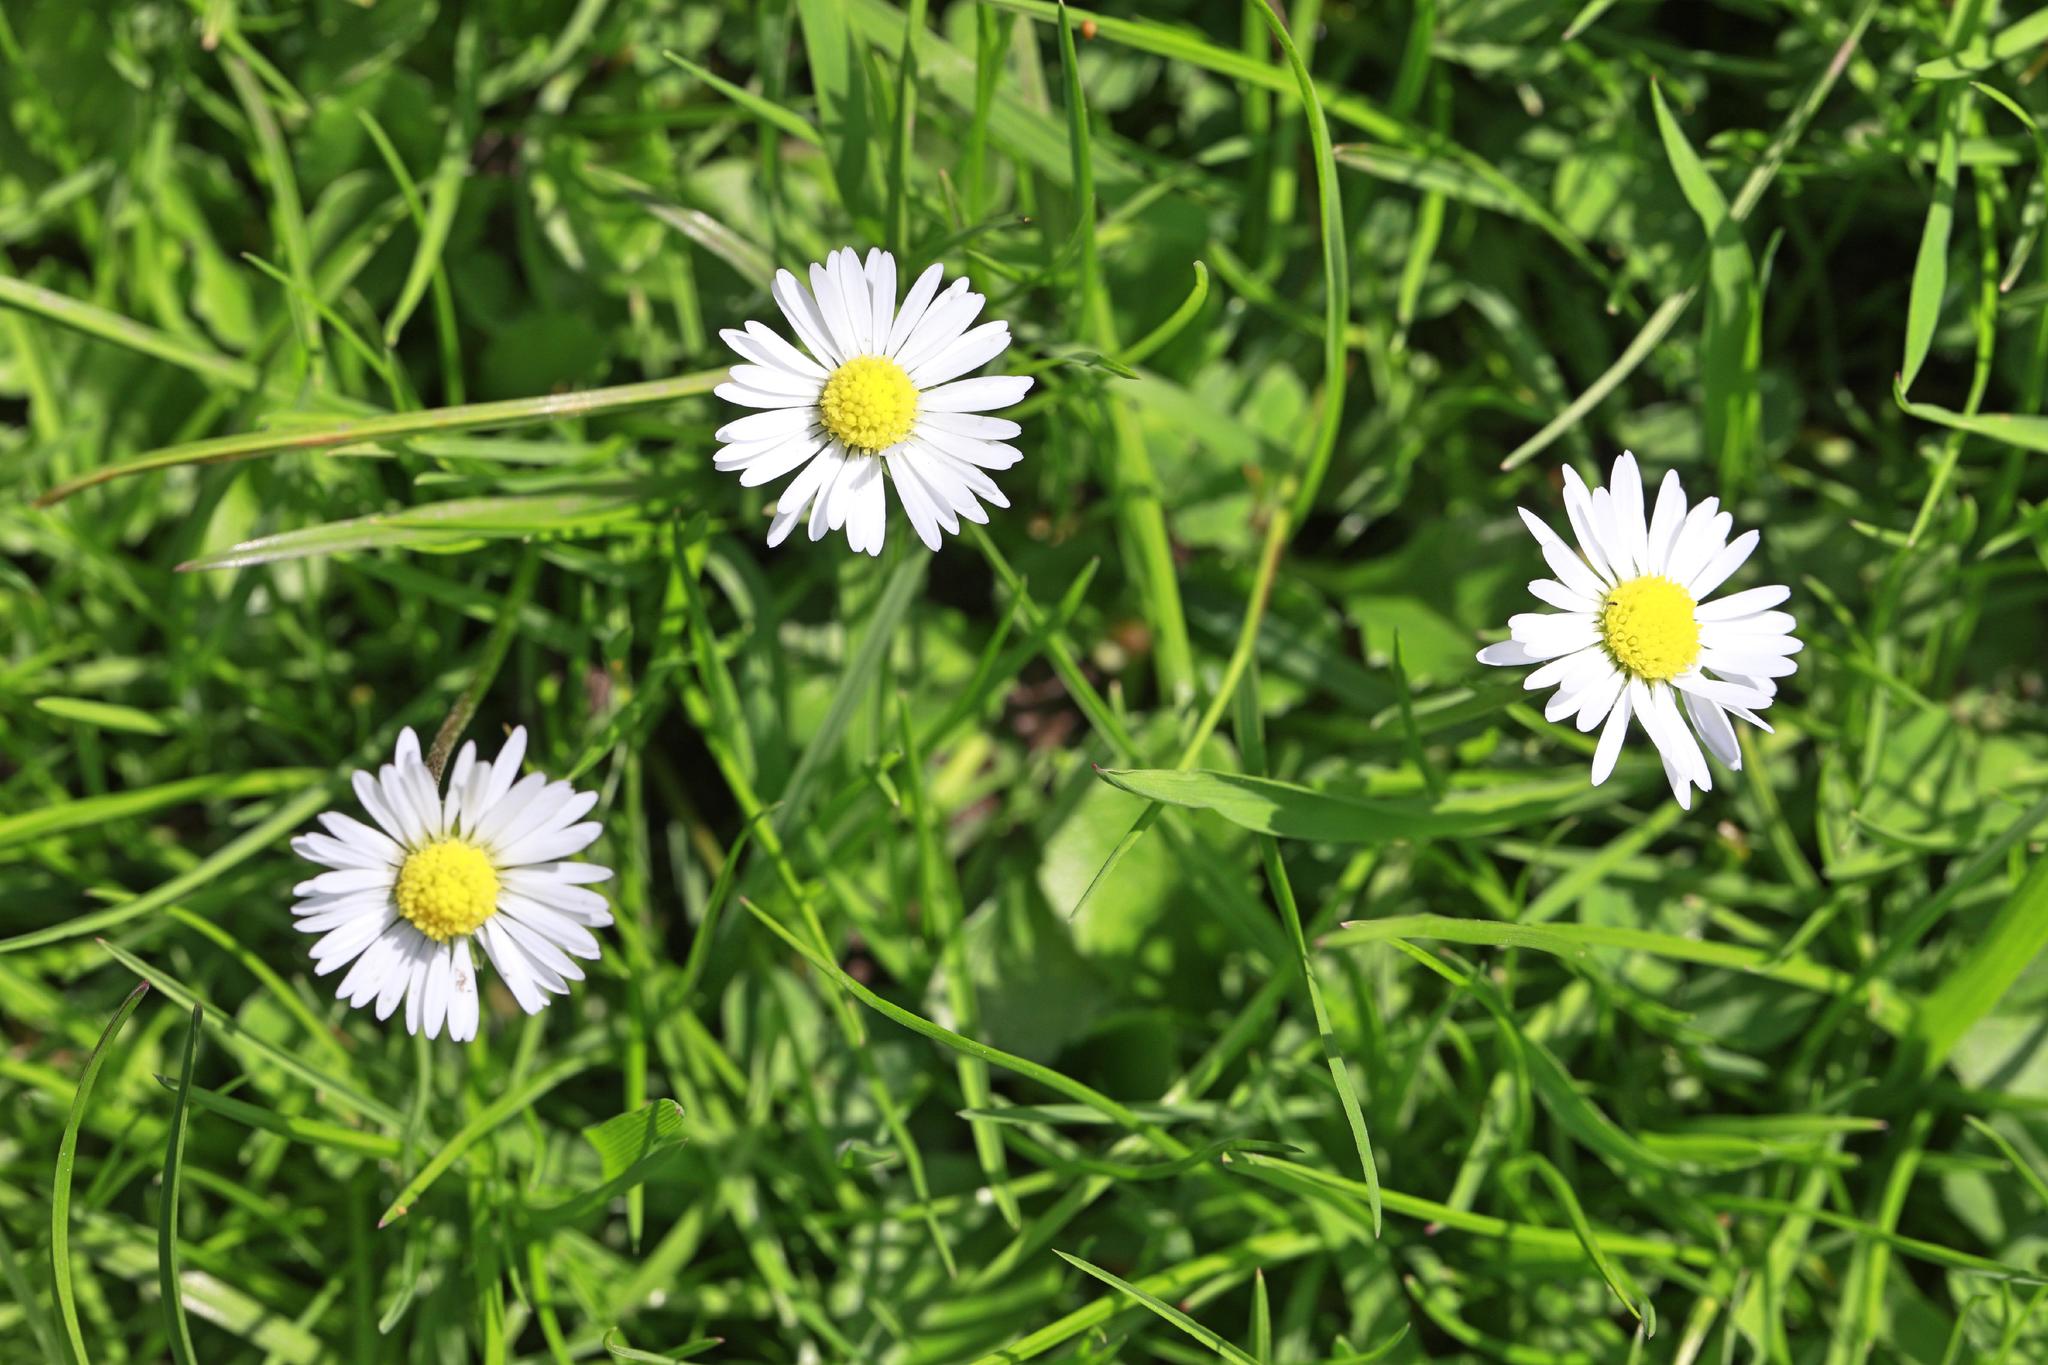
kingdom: Plantae
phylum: Tracheophyta
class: Magnoliopsida
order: Asterales
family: Asteraceae
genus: Bellis
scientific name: Bellis perennis
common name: Lawndaisy
